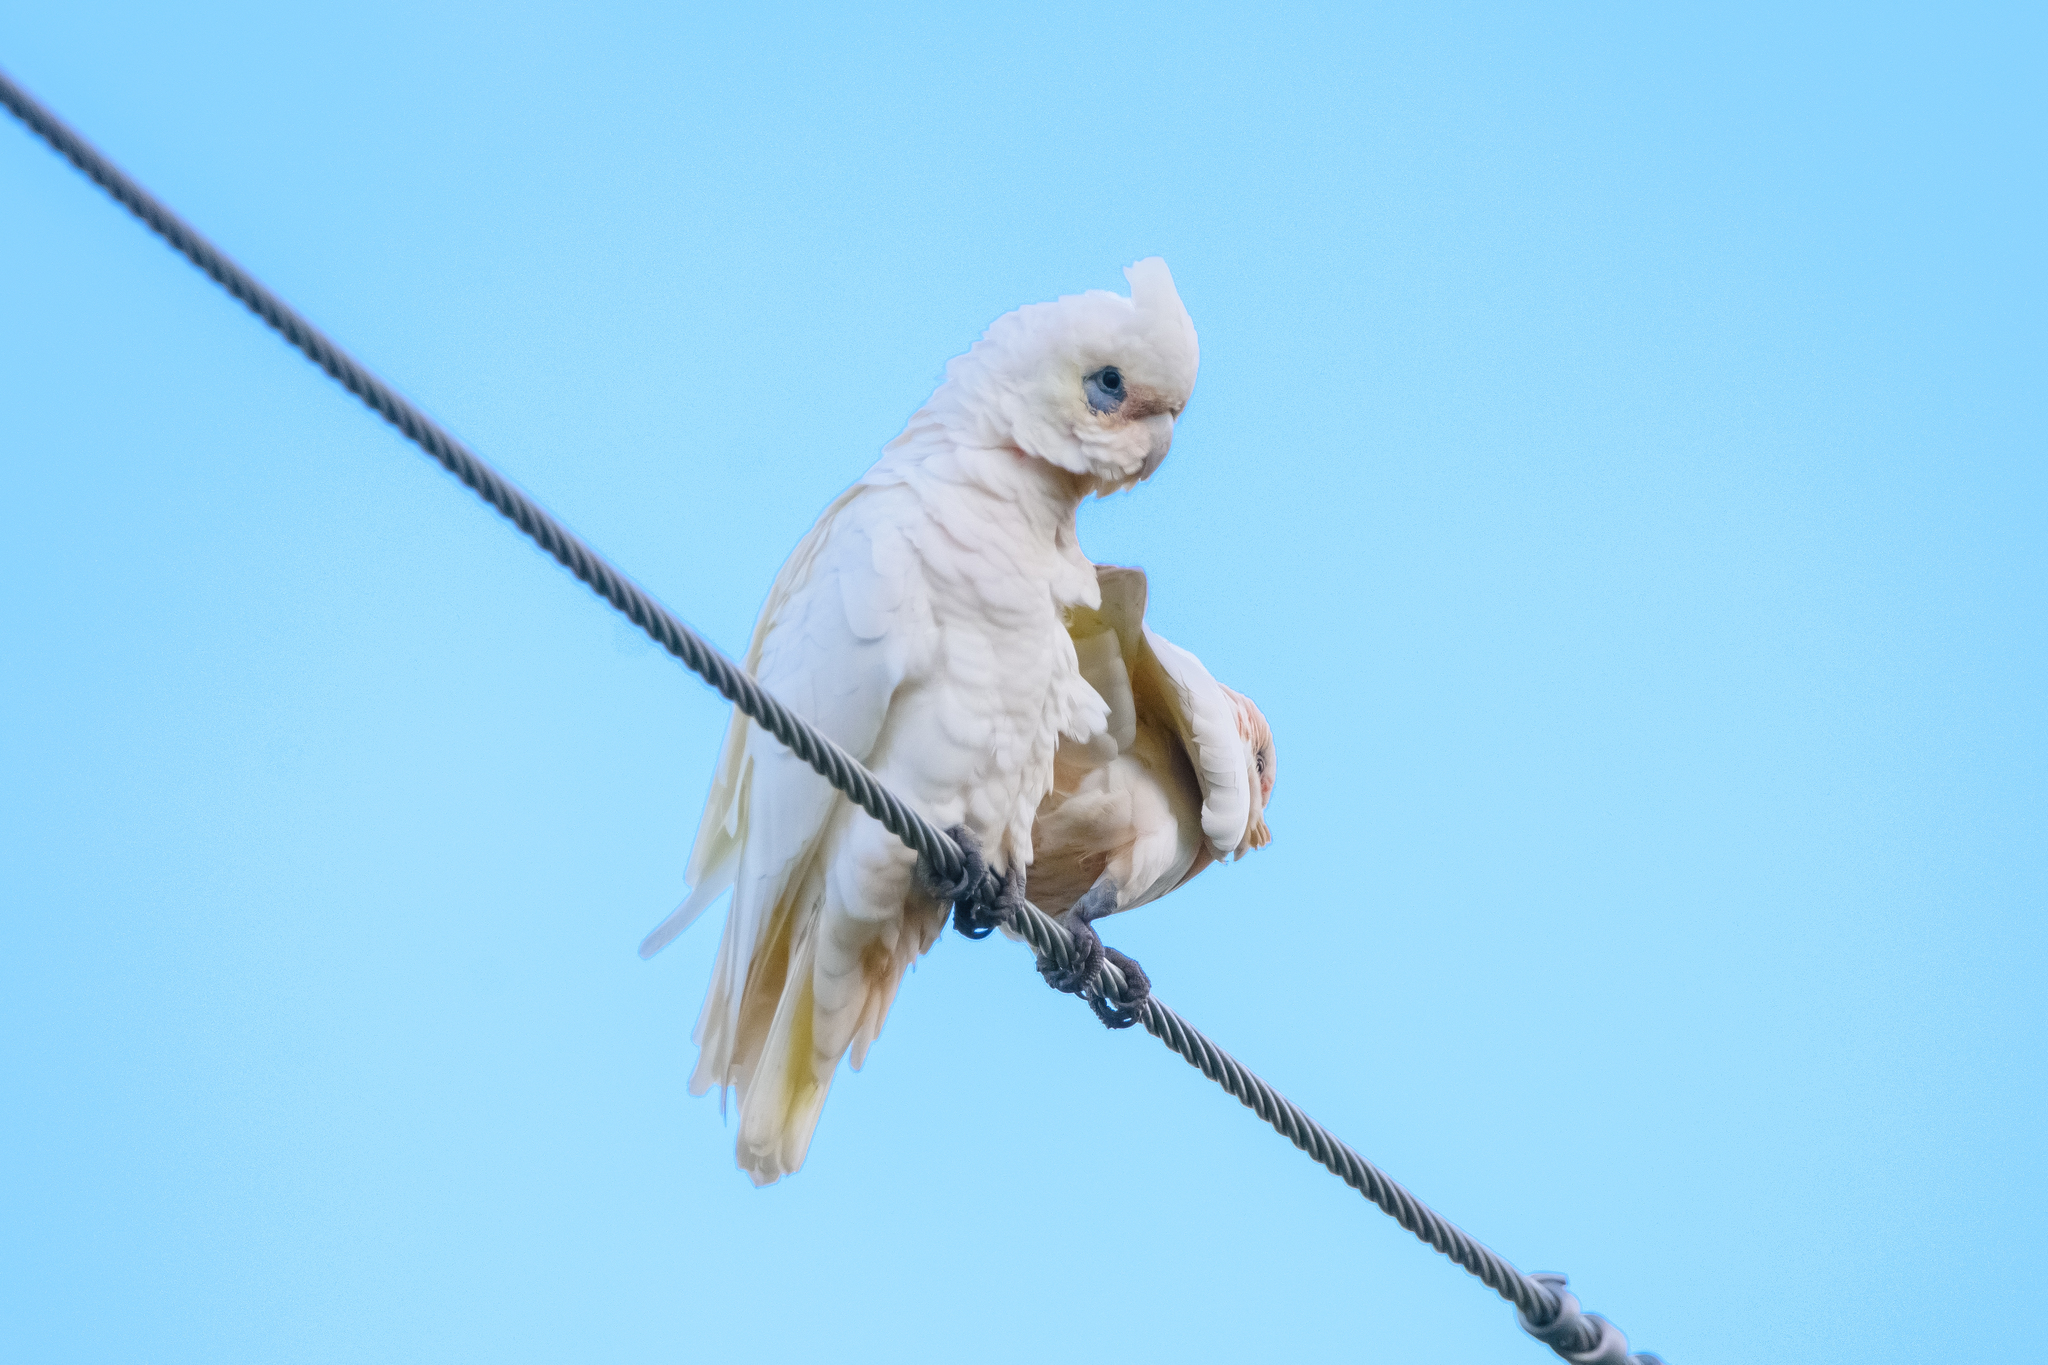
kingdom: Animalia
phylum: Chordata
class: Aves
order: Psittaciformes
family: Psittacidae
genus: Cacatua
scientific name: Cacatua sanguinea
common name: Little corella
